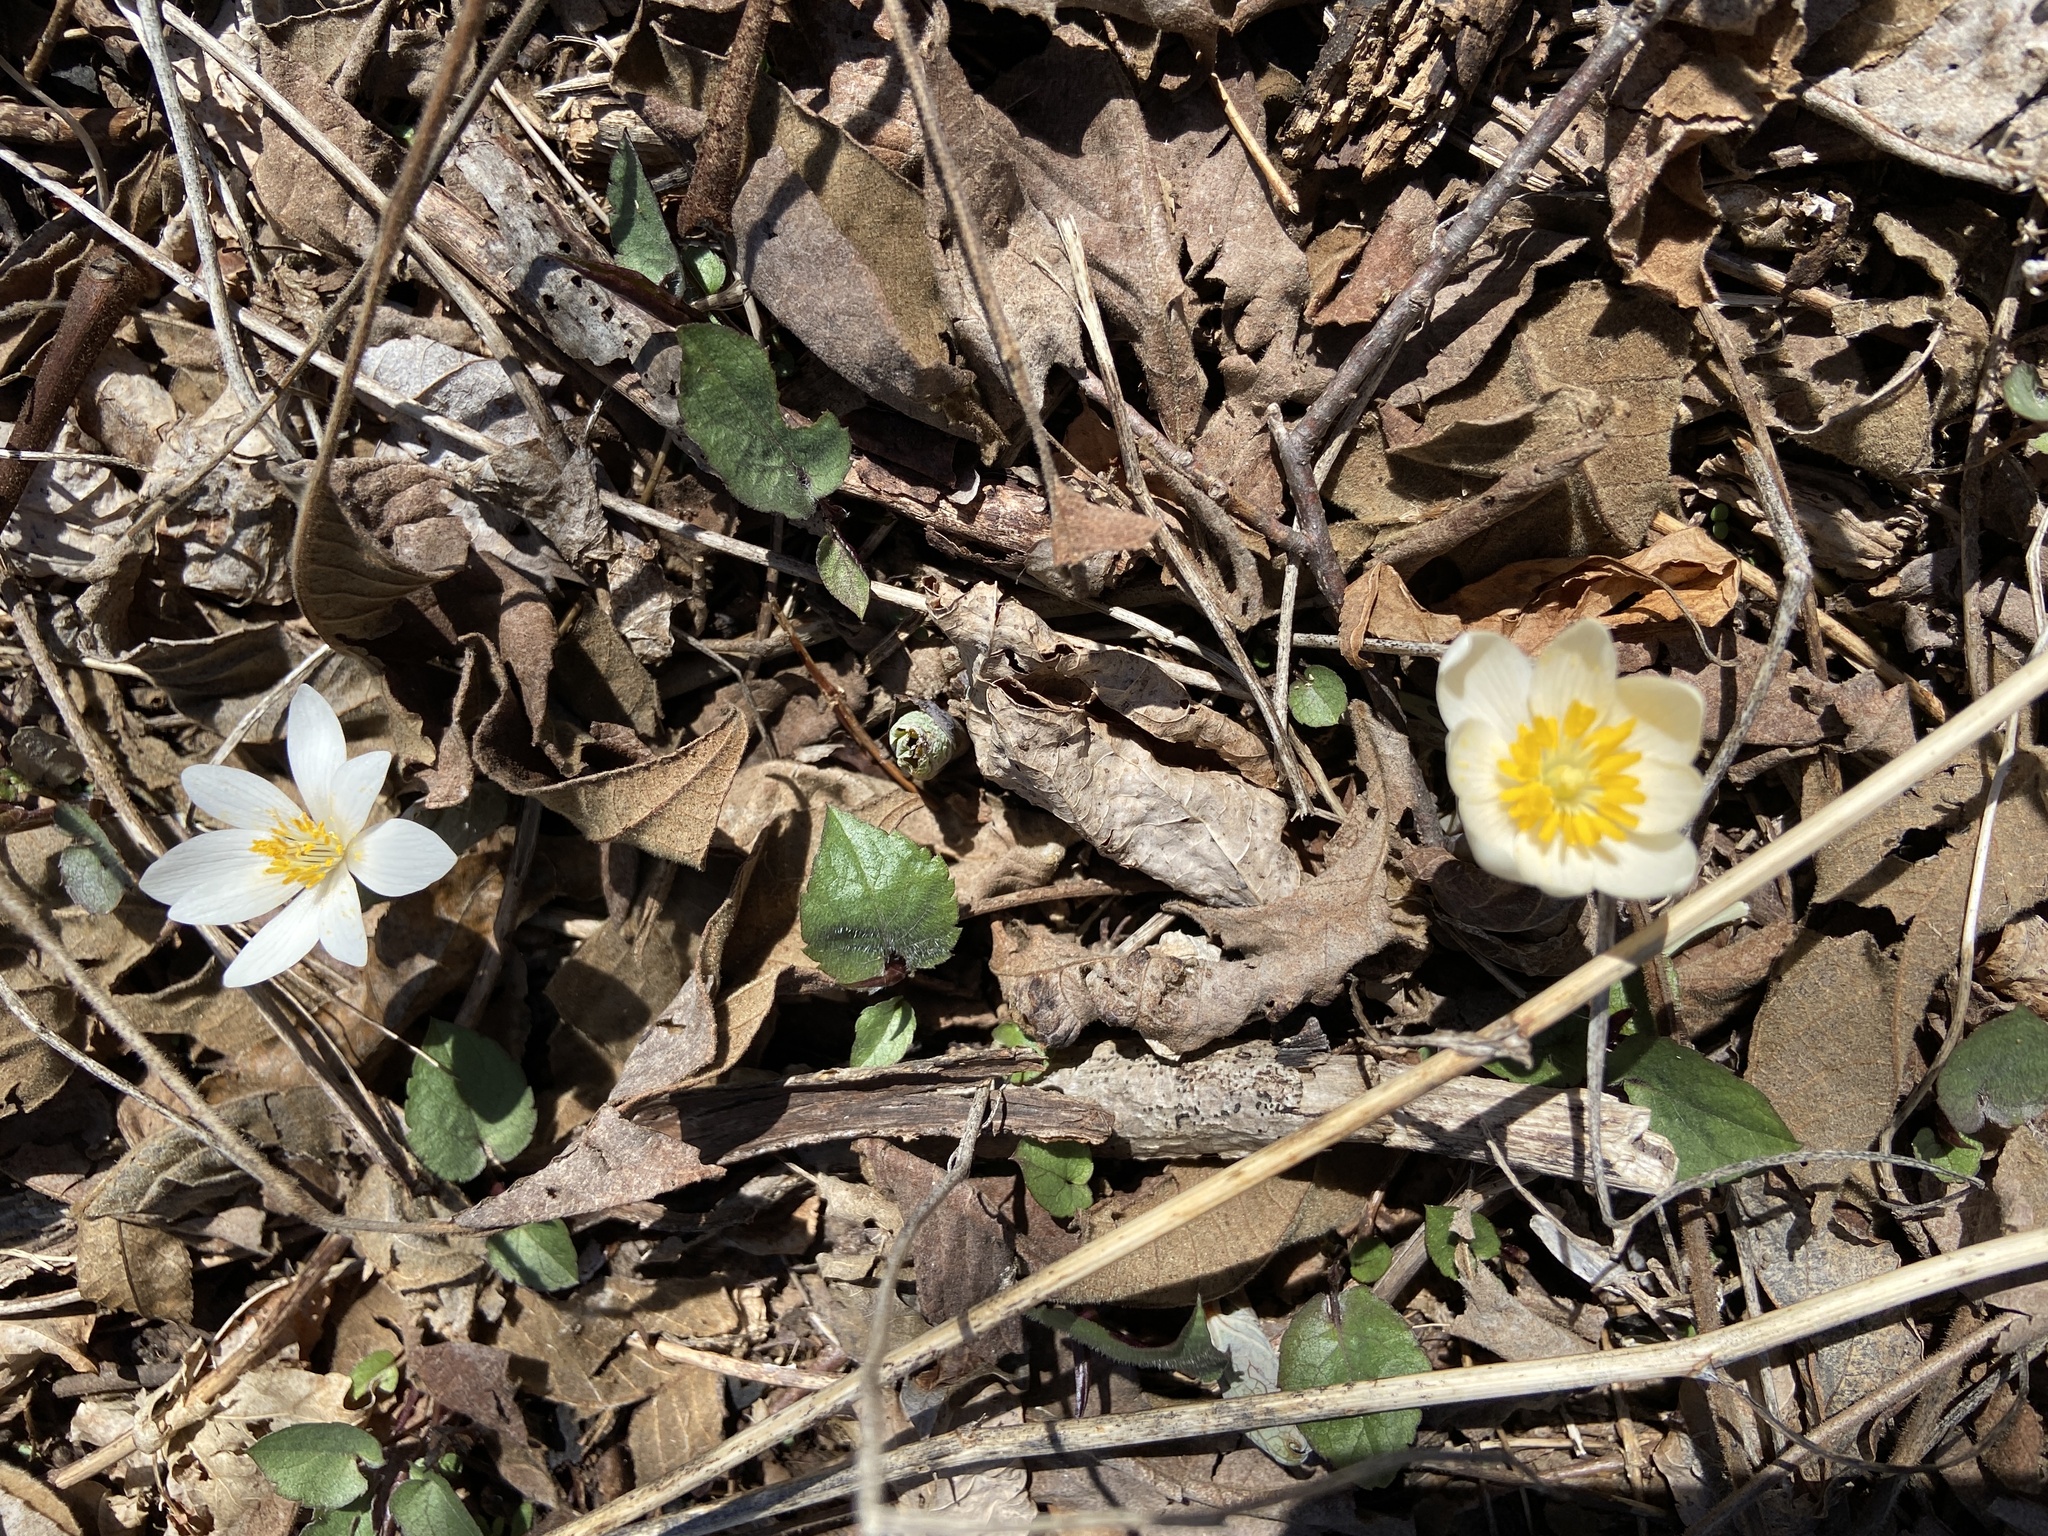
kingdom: Plantae
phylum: Tracheophyta
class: Magnoliopsida
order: Ranunculales
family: Papaveraceae
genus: Sanguinaria
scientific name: Sanguinaria canadensis
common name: Bloodroot
